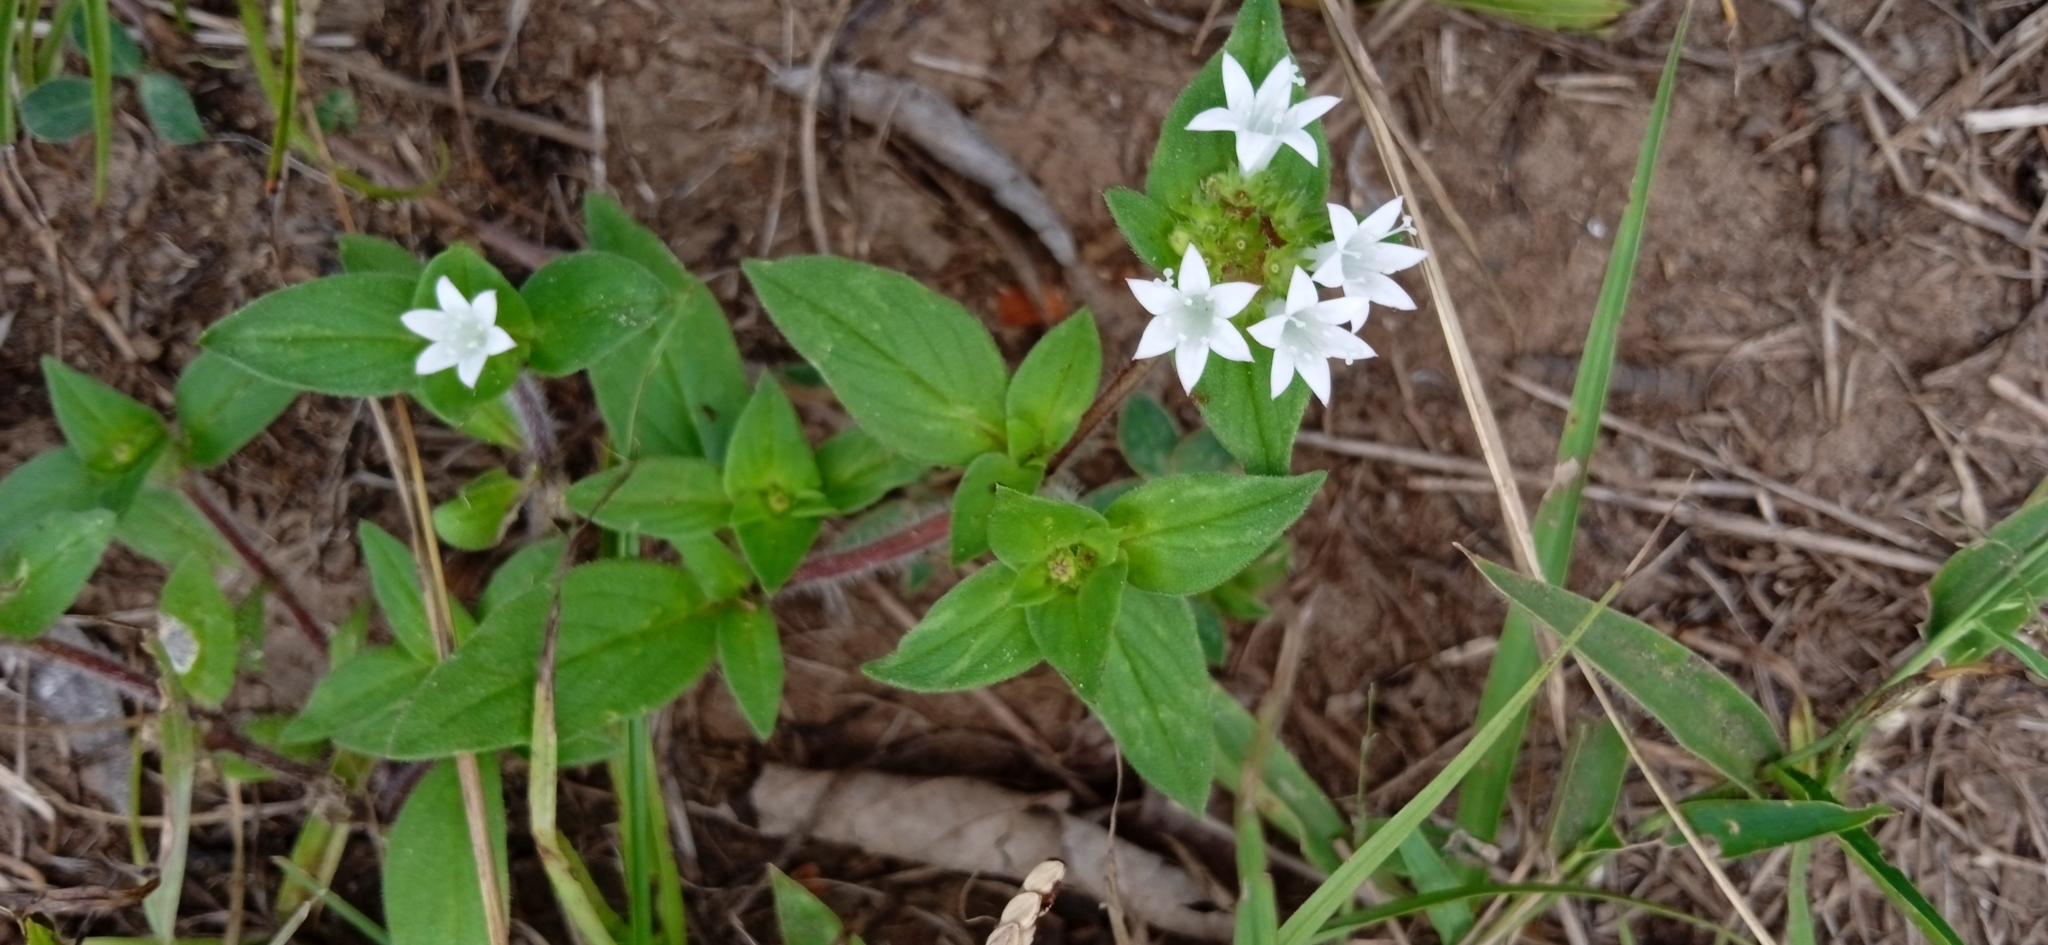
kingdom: Plantae
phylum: Tracheophyta
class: Magnoliopsida
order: Gentianales
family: Rubiaceae
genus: Richardia
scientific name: Richardia brasiliensis
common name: Tropical mexican clover
